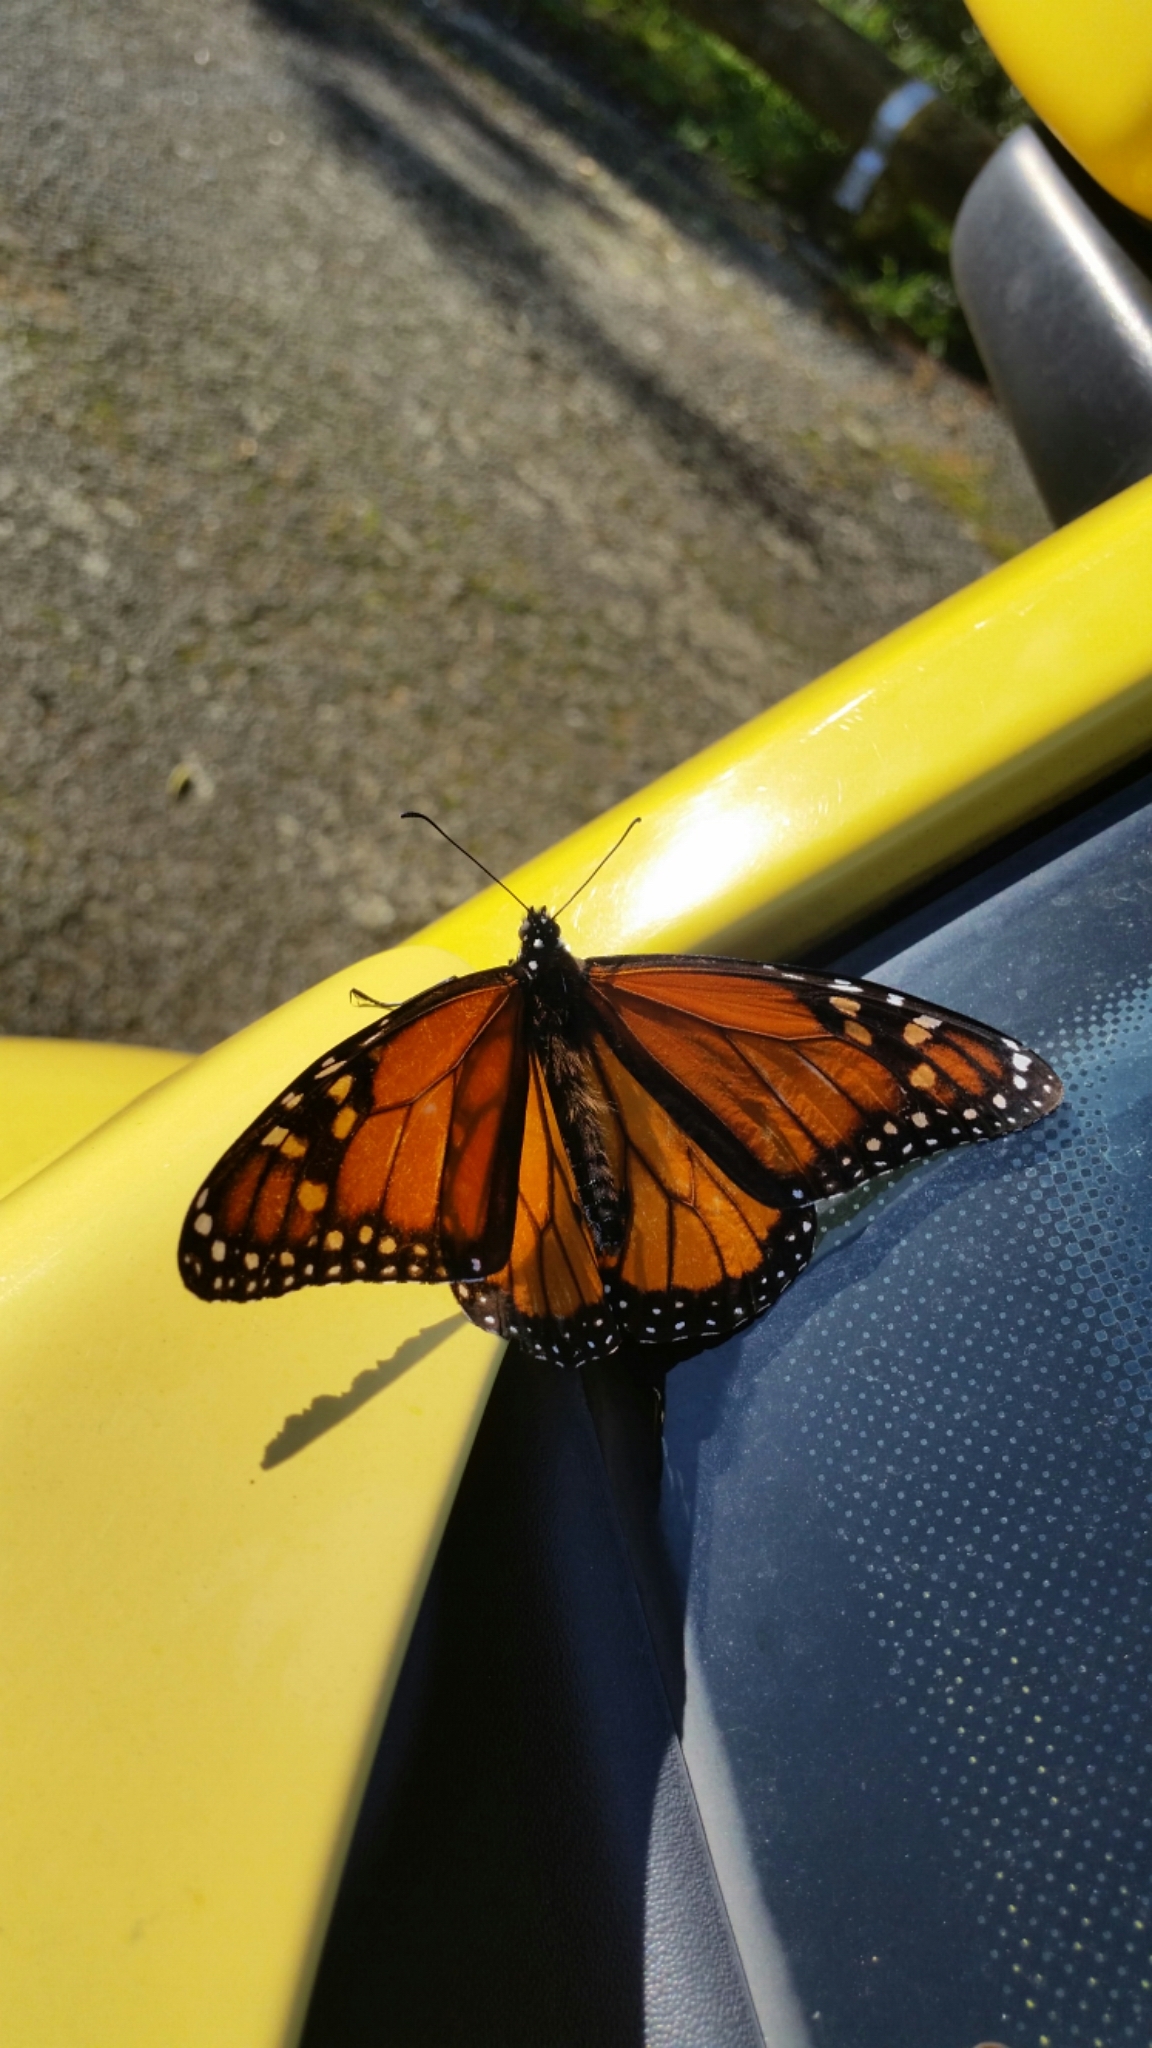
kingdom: Animalia
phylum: Arthropoda
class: Insecta
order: Lepidoptera
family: Nymphalidae
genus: Danaus
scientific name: Danaus plexippus
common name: Monarch
